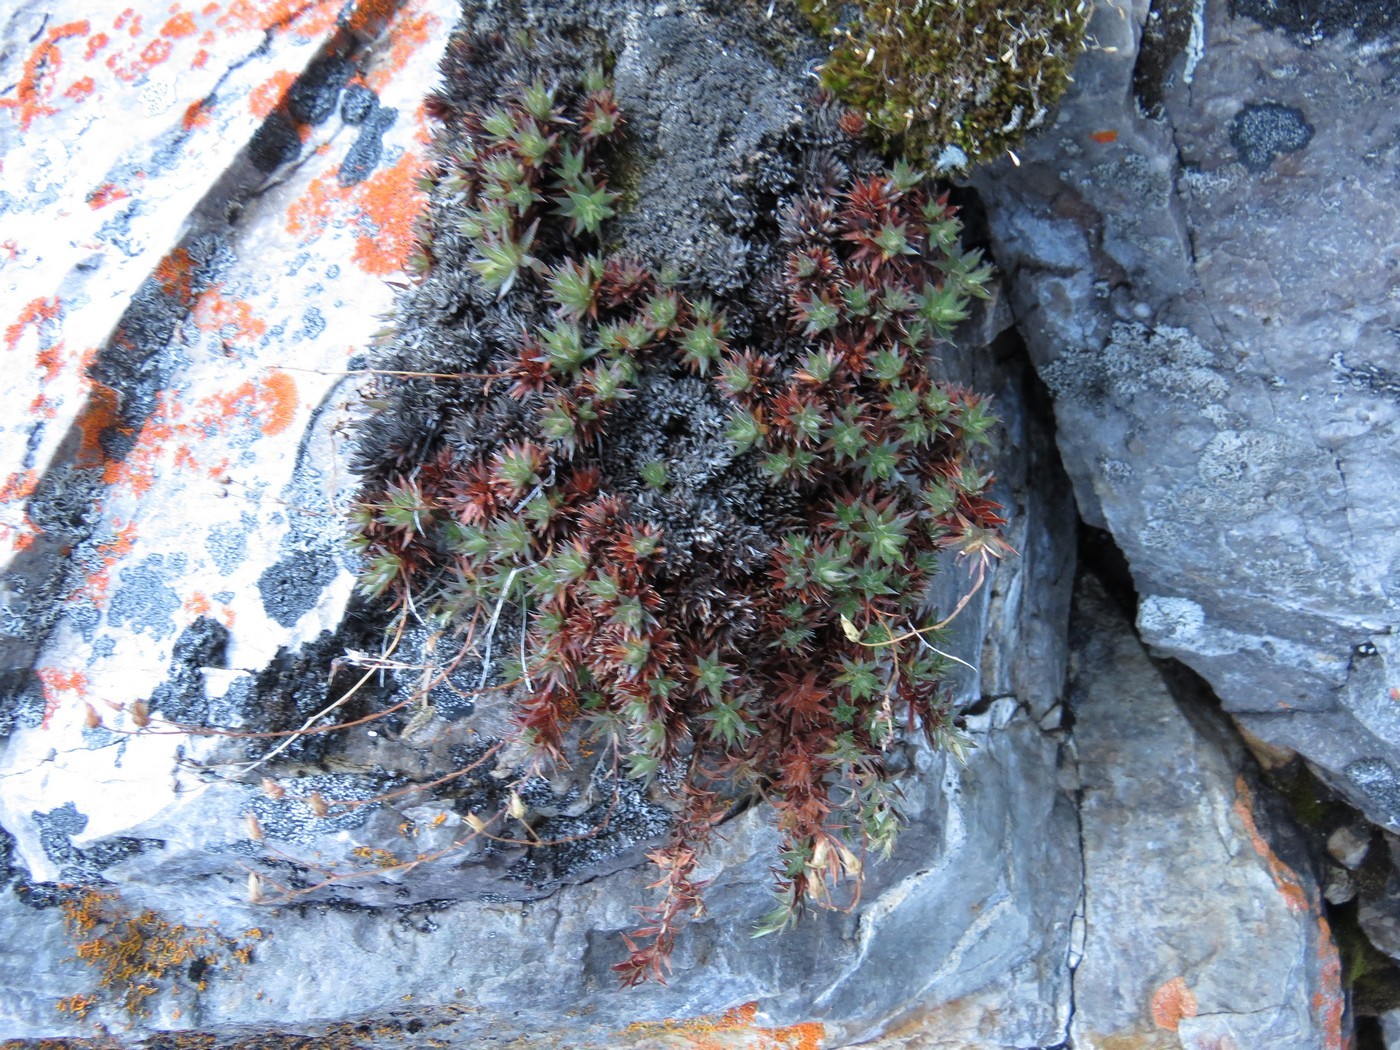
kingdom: Plantae
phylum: Tracheophyta
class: Magnoliopsida
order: Saxifragales
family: Saxifragaceae
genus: Saxifraga
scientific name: Saxifraga bronchialis
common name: Matted saxifrage
